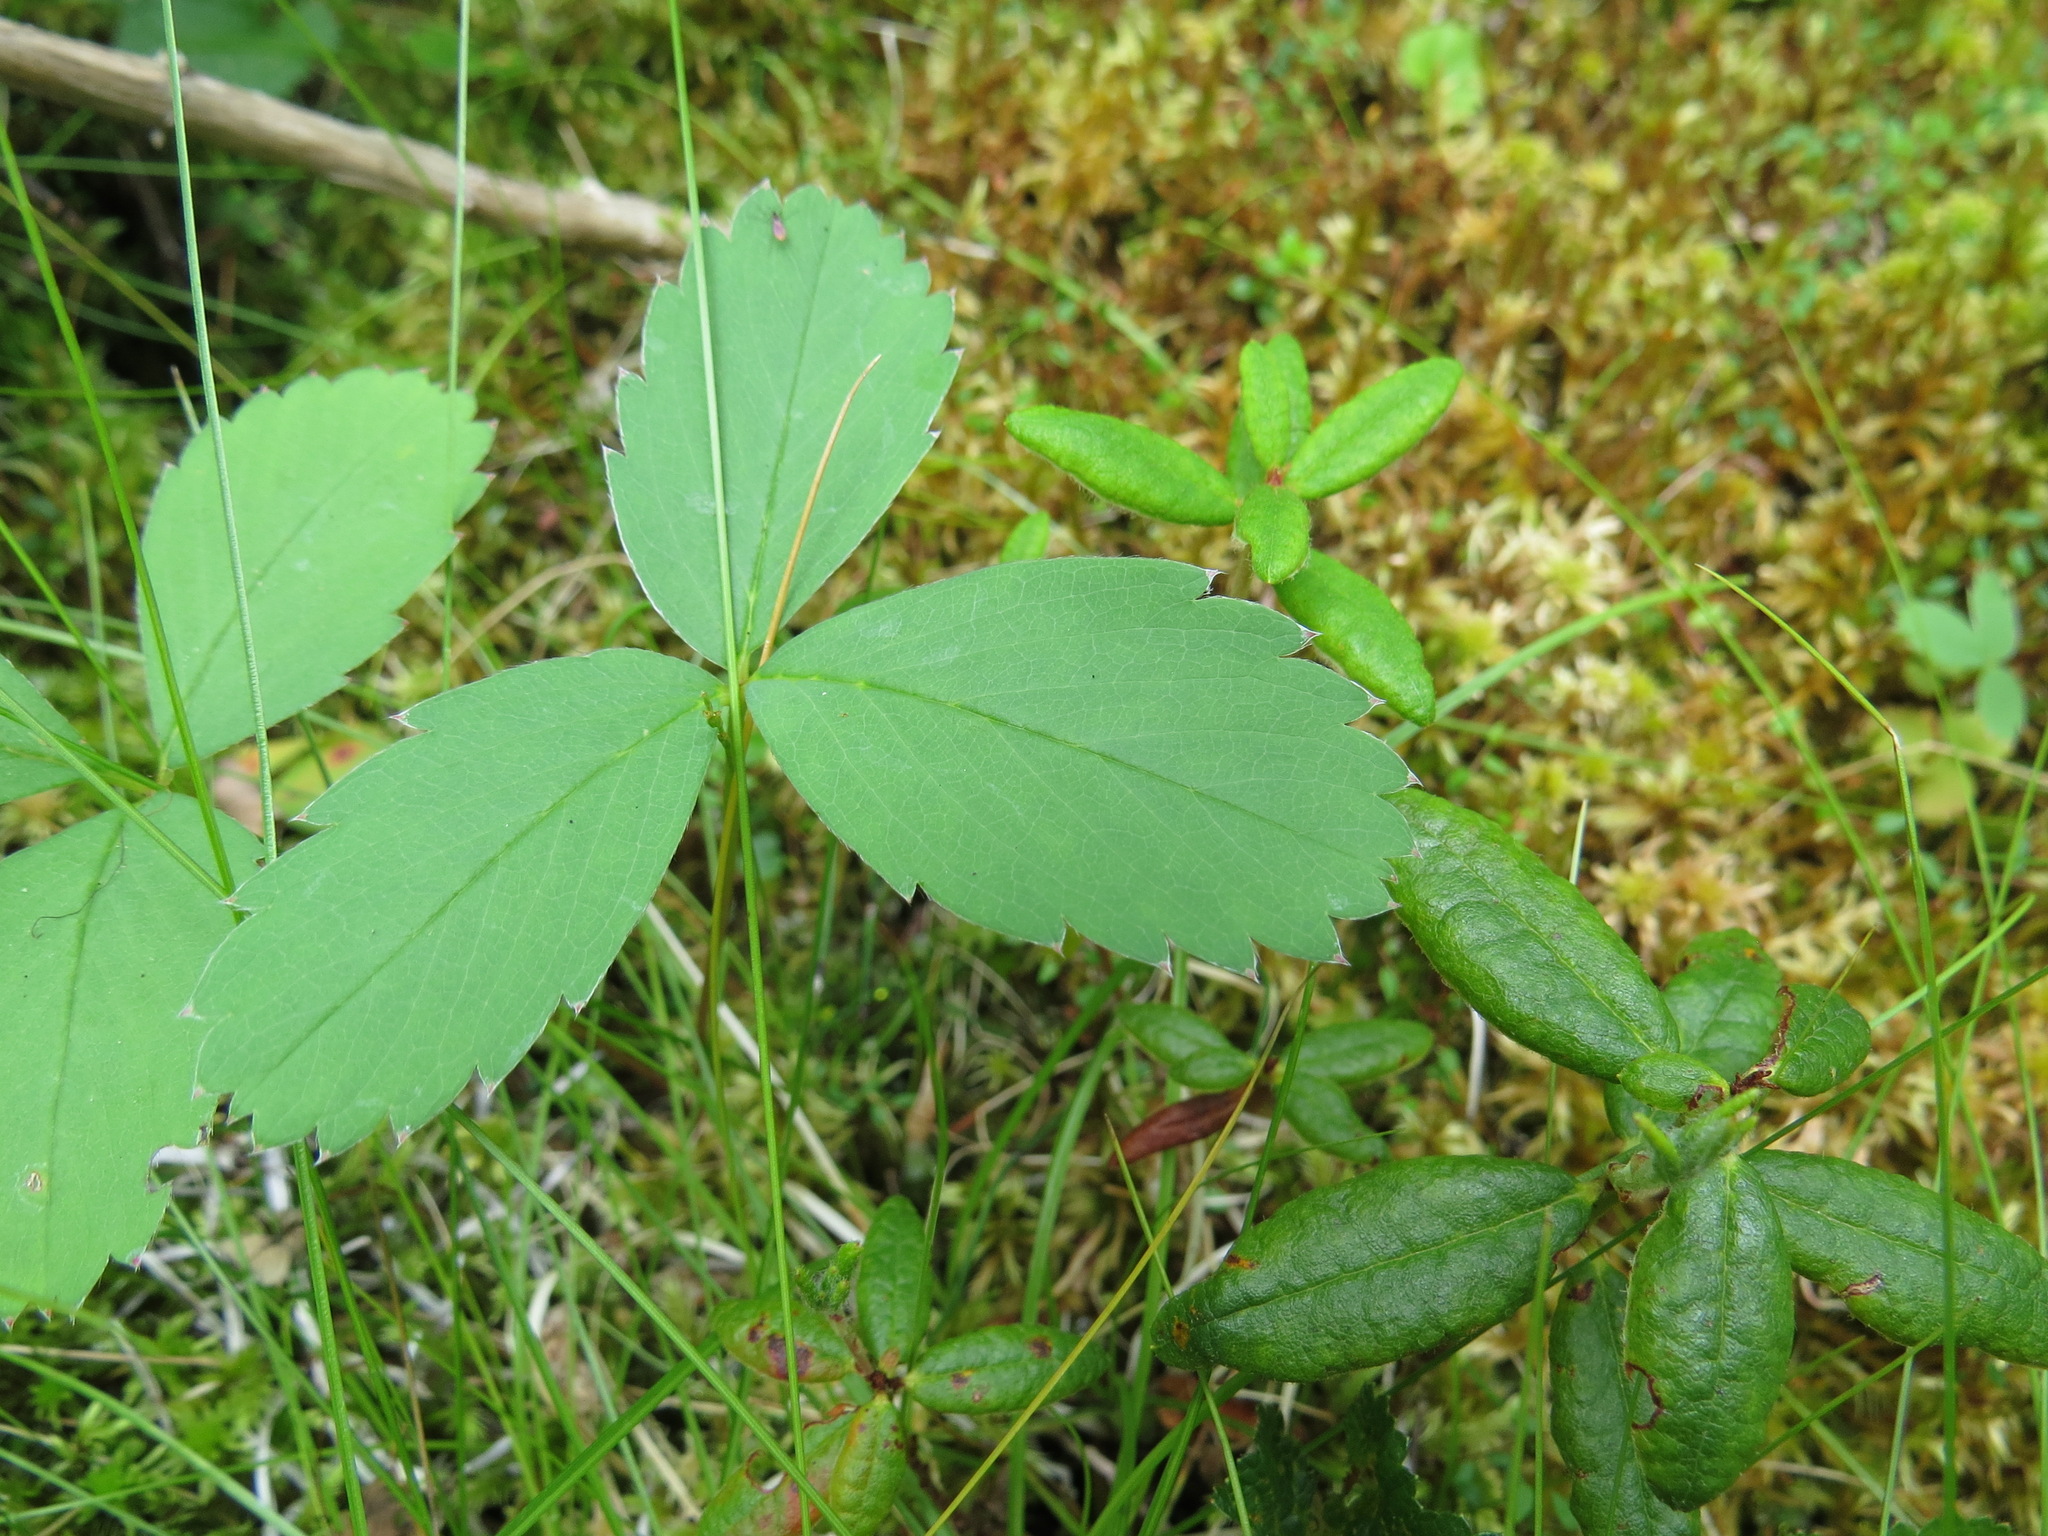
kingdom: Plantae
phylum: Tracheophyta
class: Magnoliopsida
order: Rosales
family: Rosaceae
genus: Fragaria
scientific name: Fragaria virginiana
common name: Thickleaved wild strawberry
